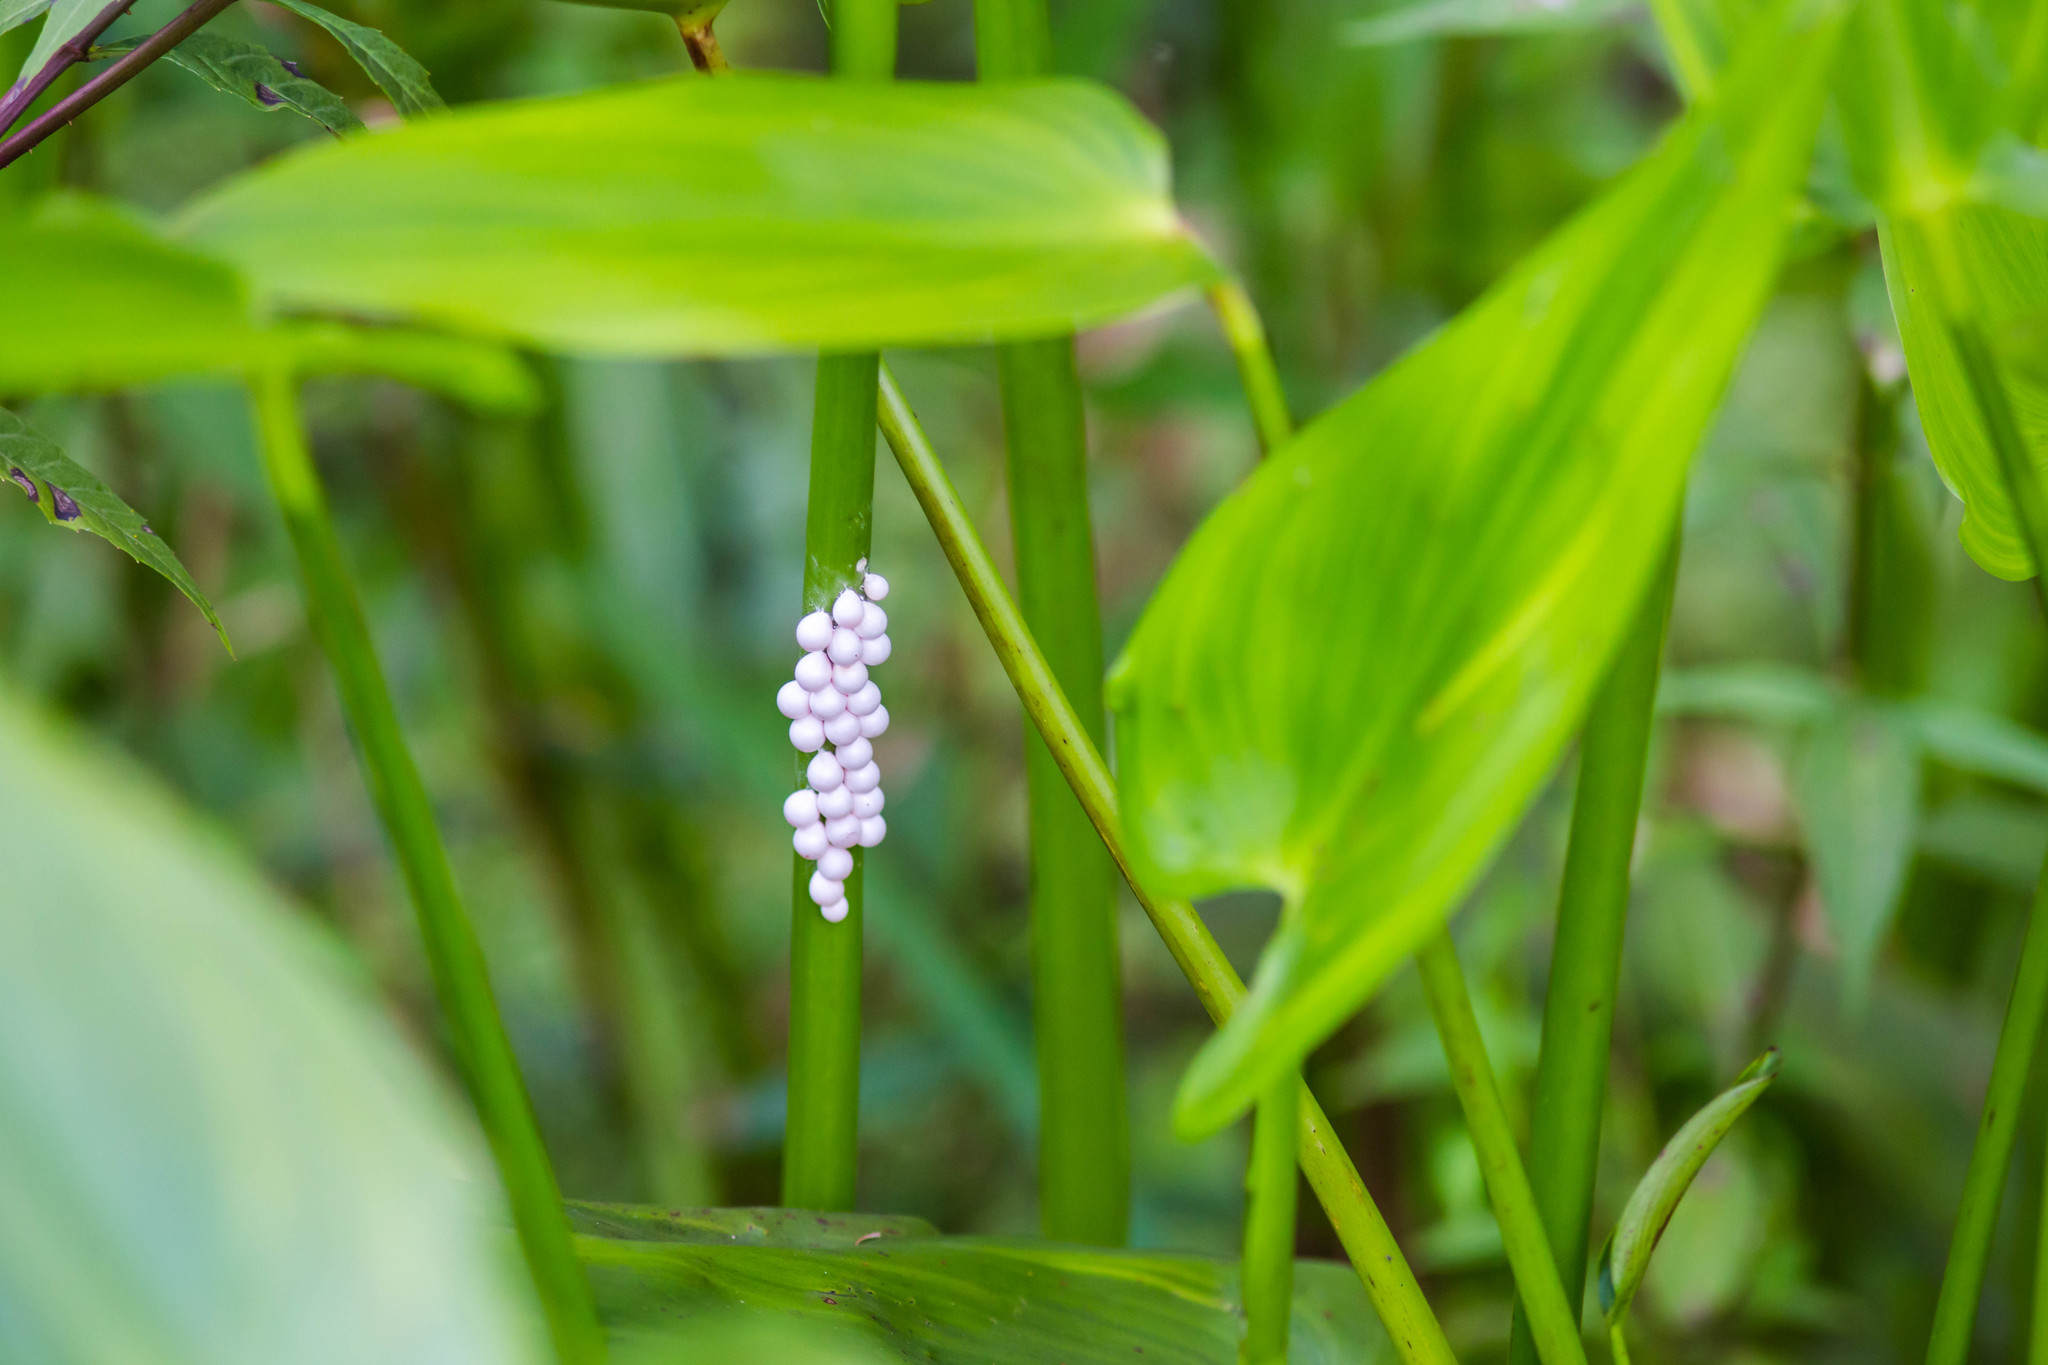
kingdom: Animalia
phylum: Mollusca
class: Gastropoda
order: Architaenioglossa
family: Ampullariidae
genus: Pomacea
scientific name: Pomacea paludosa
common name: Florida applesnail
